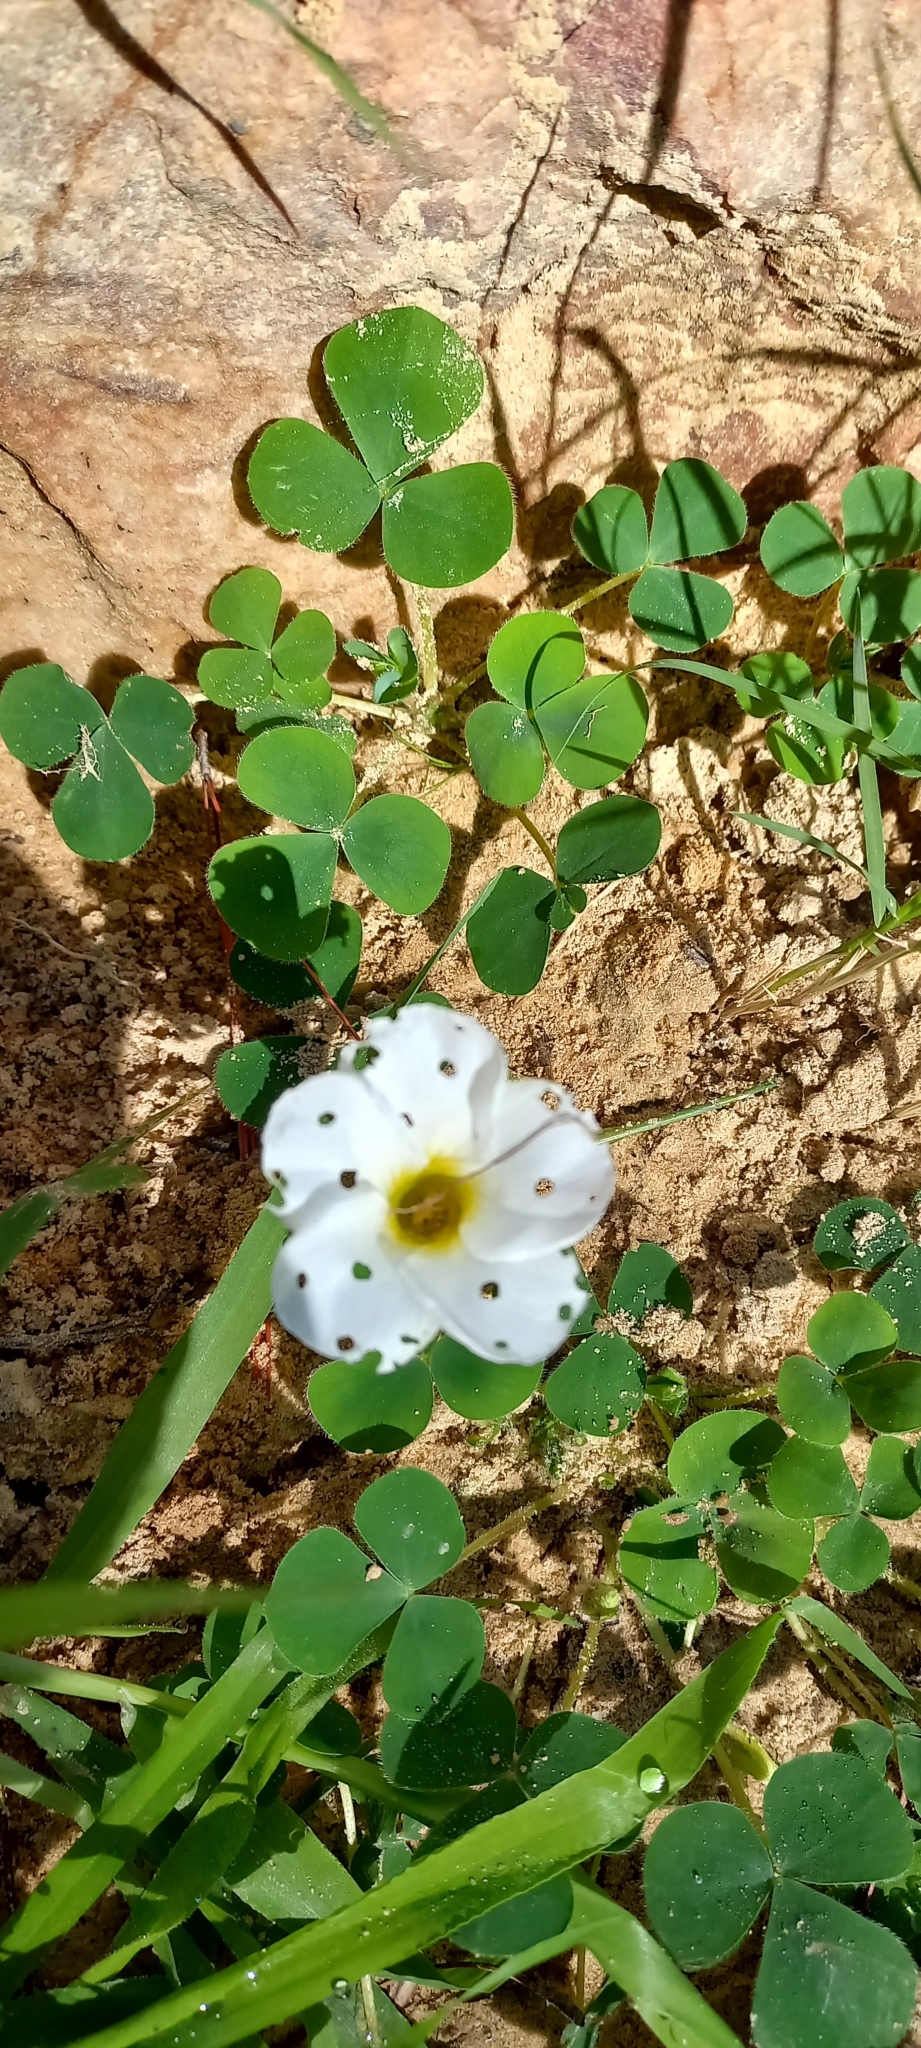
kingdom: Plantae
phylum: Tracheophyta
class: Magnoliopsida
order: Oxalidales
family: Oxalidaceae
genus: Oxalis
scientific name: Oxalis purpurea
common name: Purple woodsorrel
